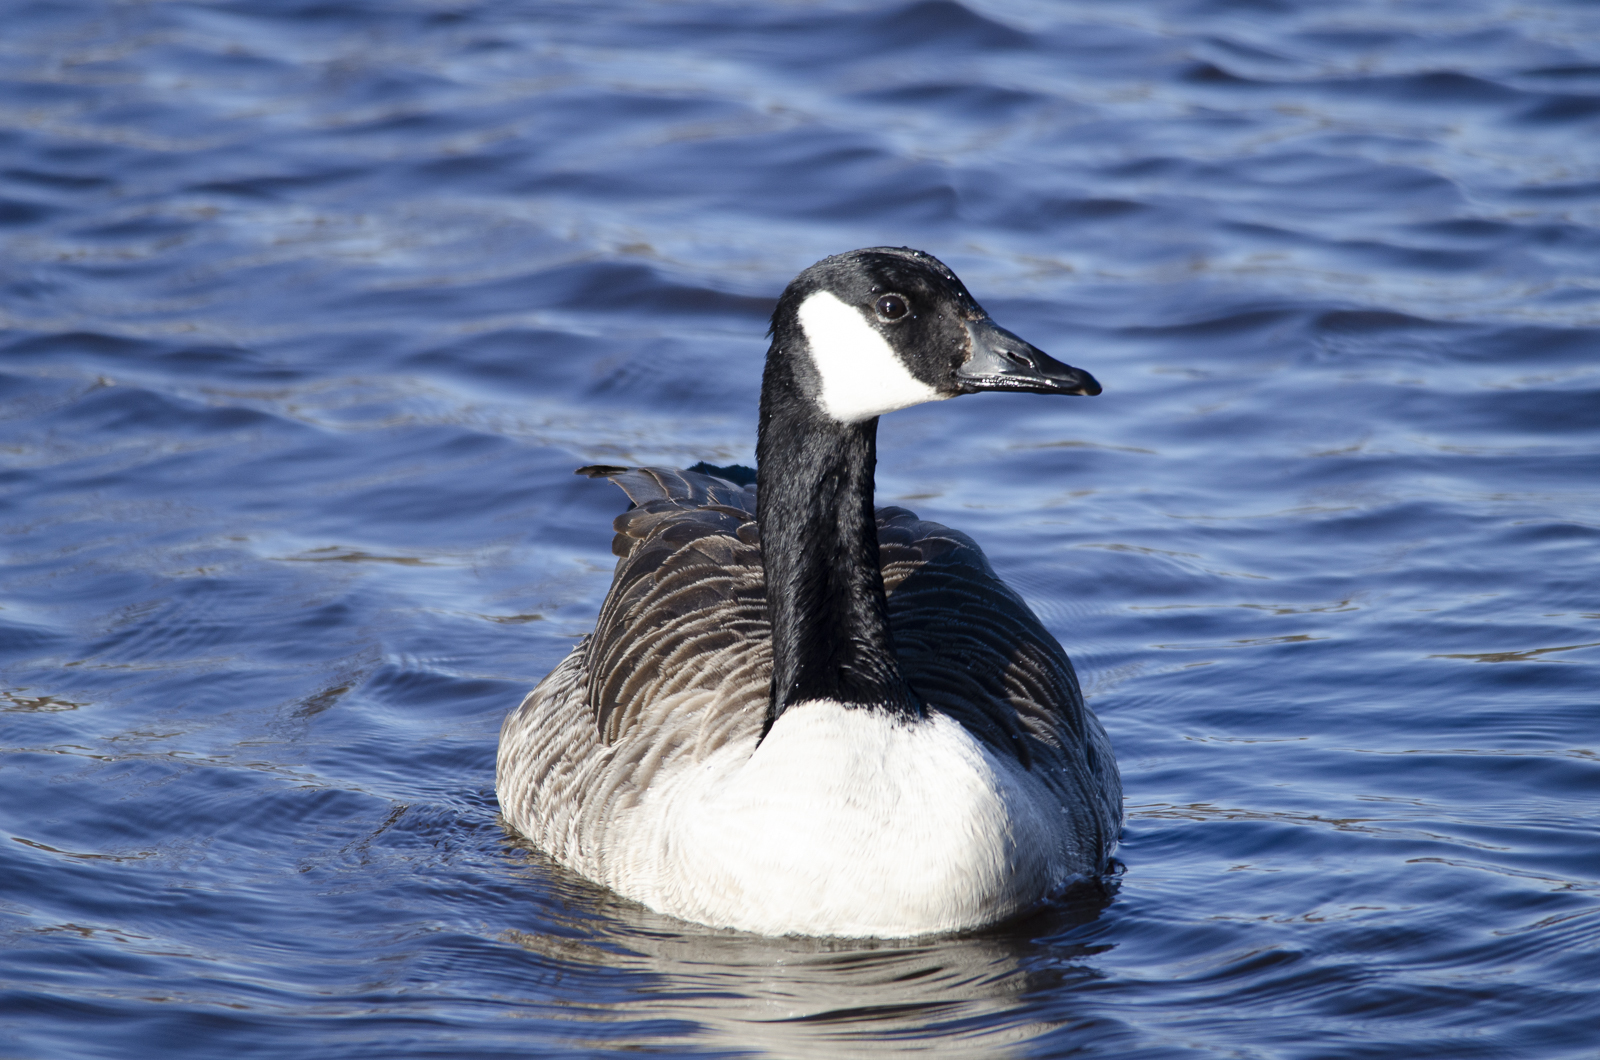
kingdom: Animalia
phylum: Chordata
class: Aves
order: Anseriformes
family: Anatidae
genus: Branta
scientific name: Branta canadensis
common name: Canada goose
